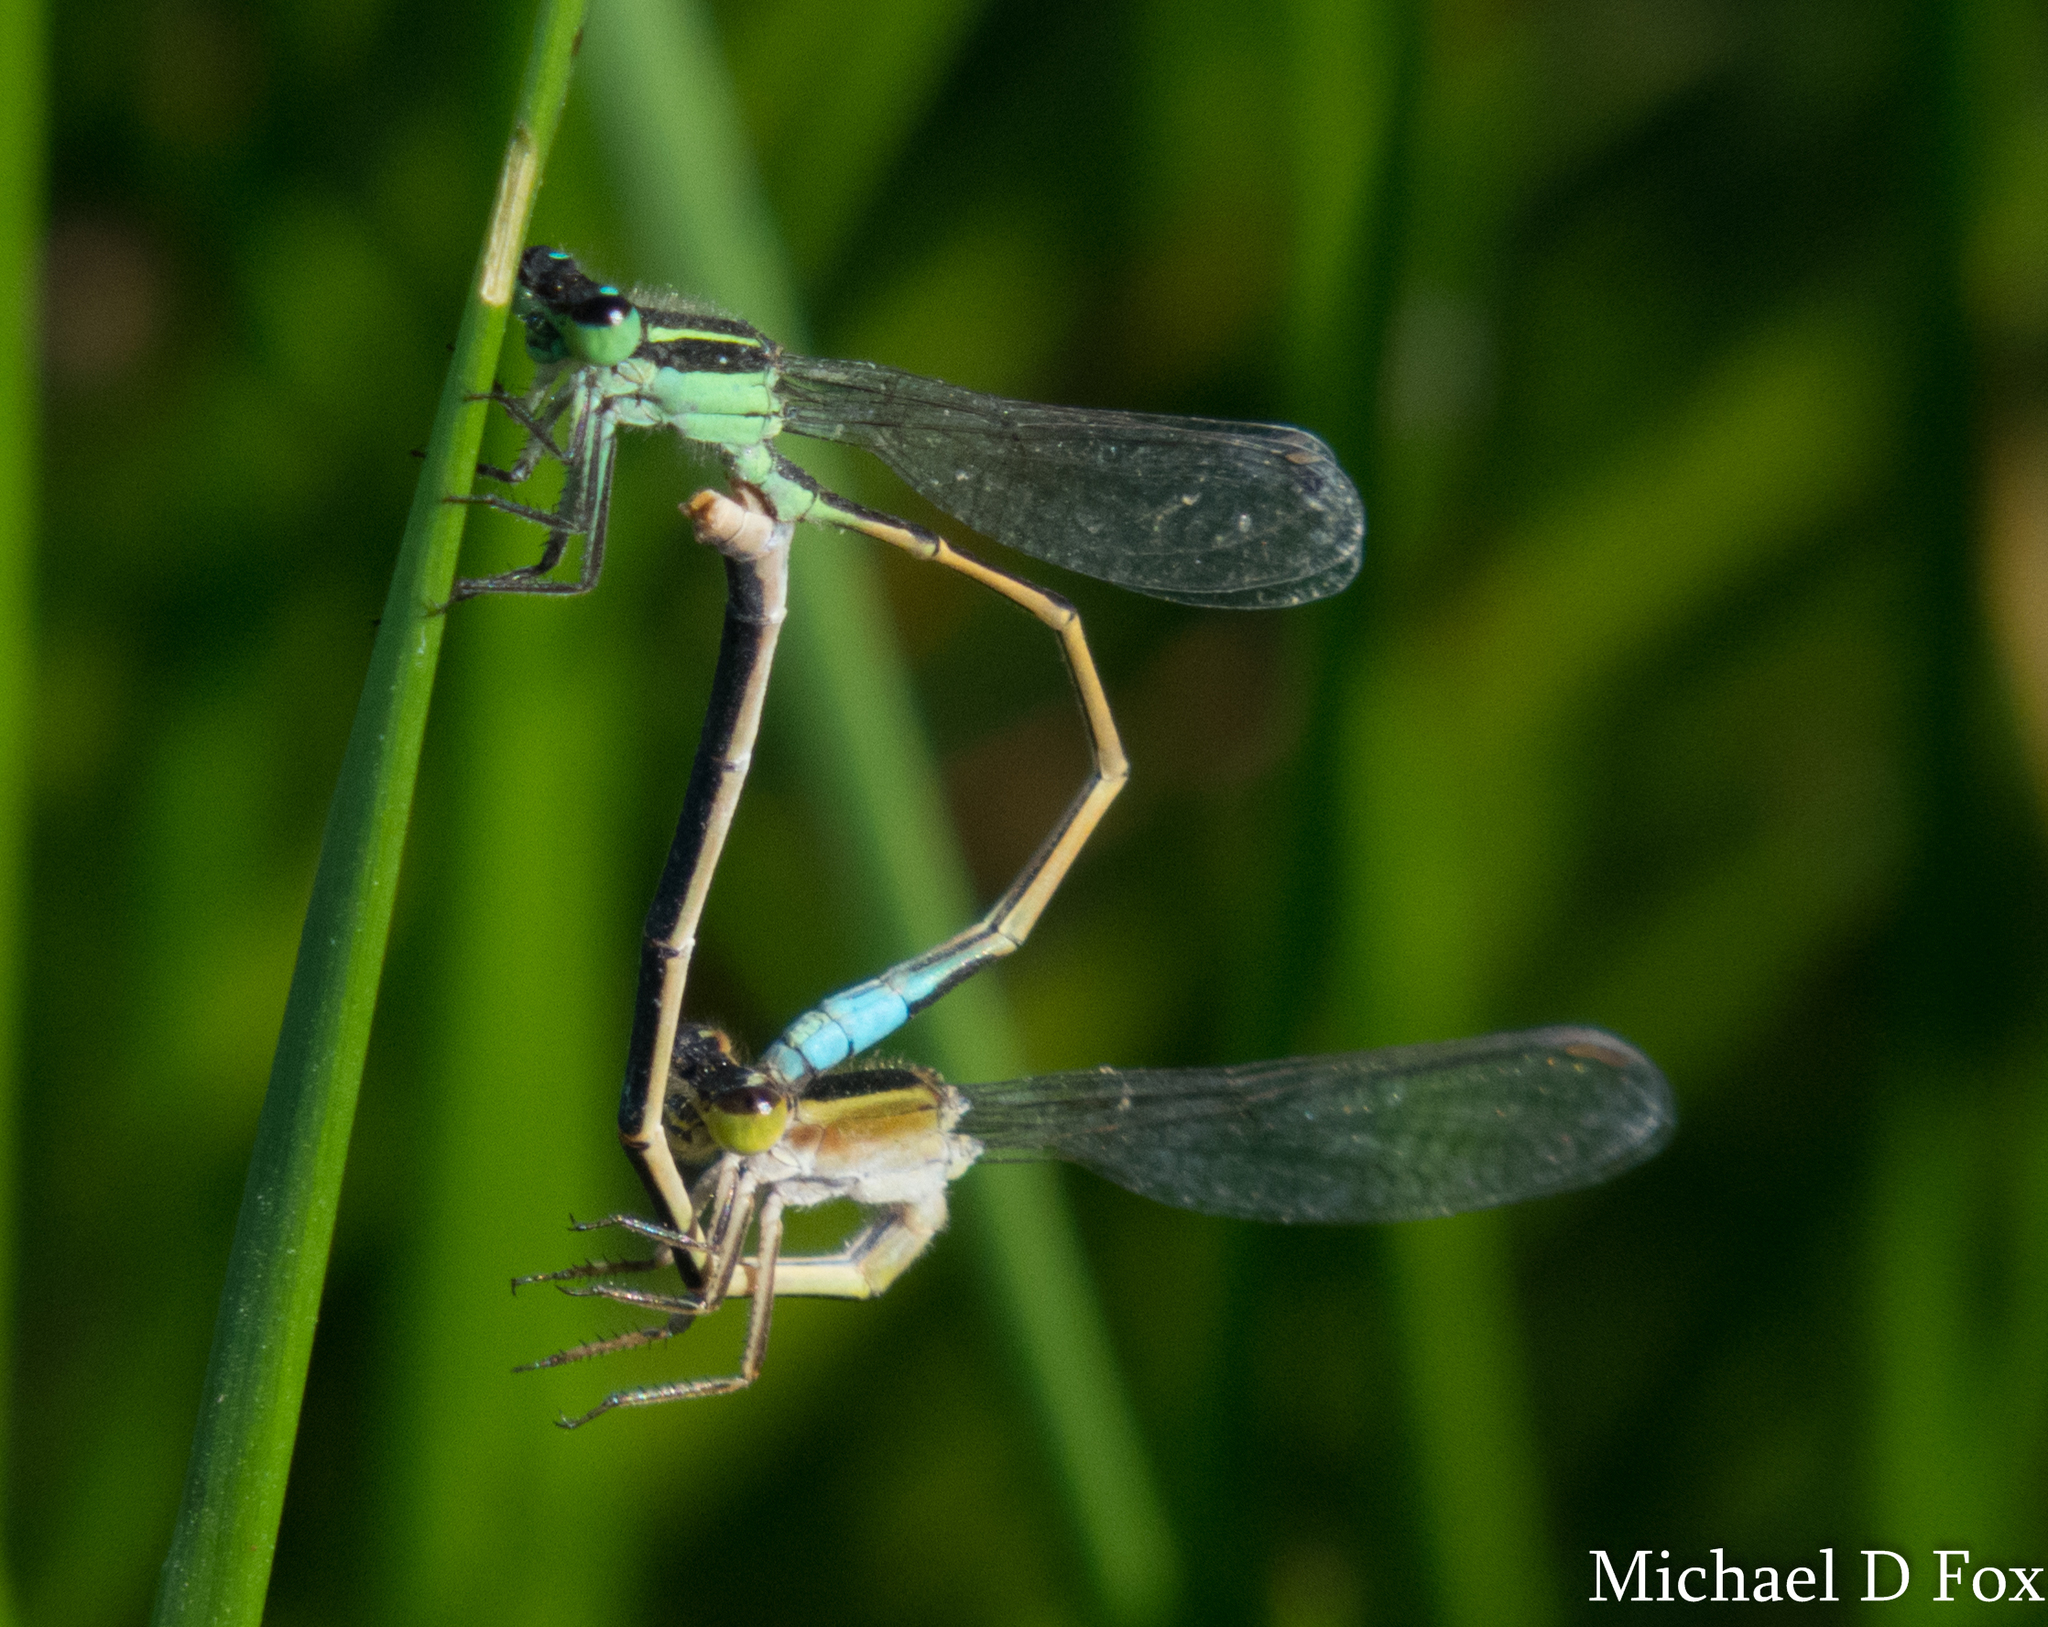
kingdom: Animalia
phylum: Arthropoda
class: Insecta
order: Odonata
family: Coenagrionidae
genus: Ischnura
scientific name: Ischnura ramburii
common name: Rambur's forktail
